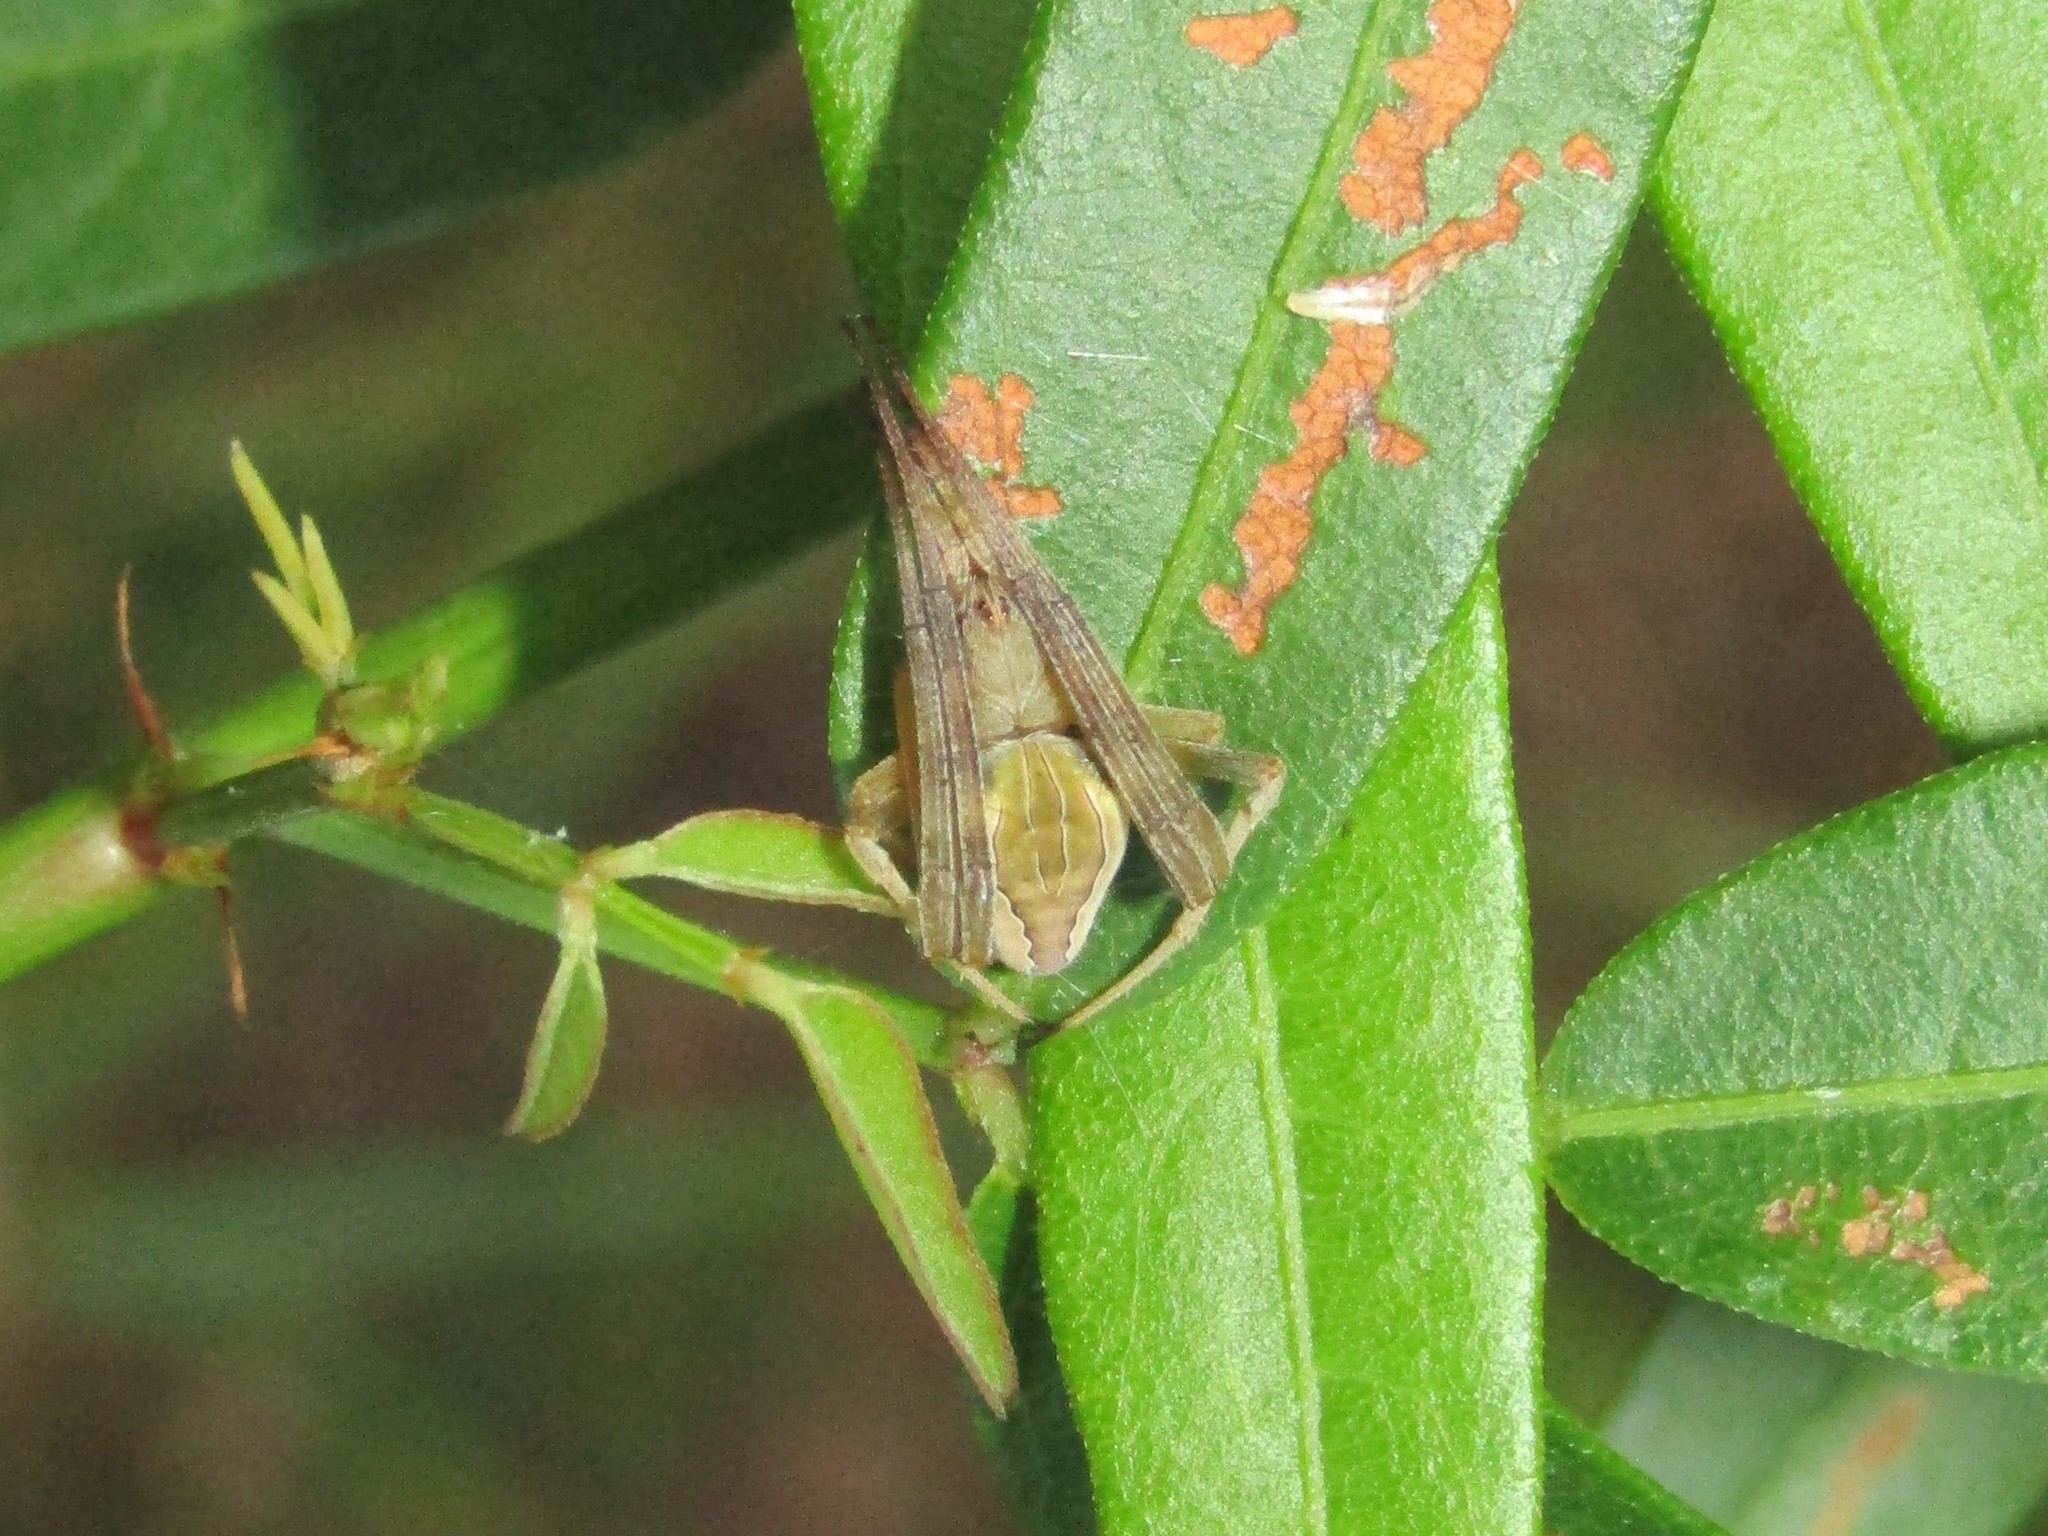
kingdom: Animalia
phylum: Arthropoda
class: Arachnida
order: Araneae
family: Araneidae
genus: Acacesia
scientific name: Acacesia hamata
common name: Orb weavers
